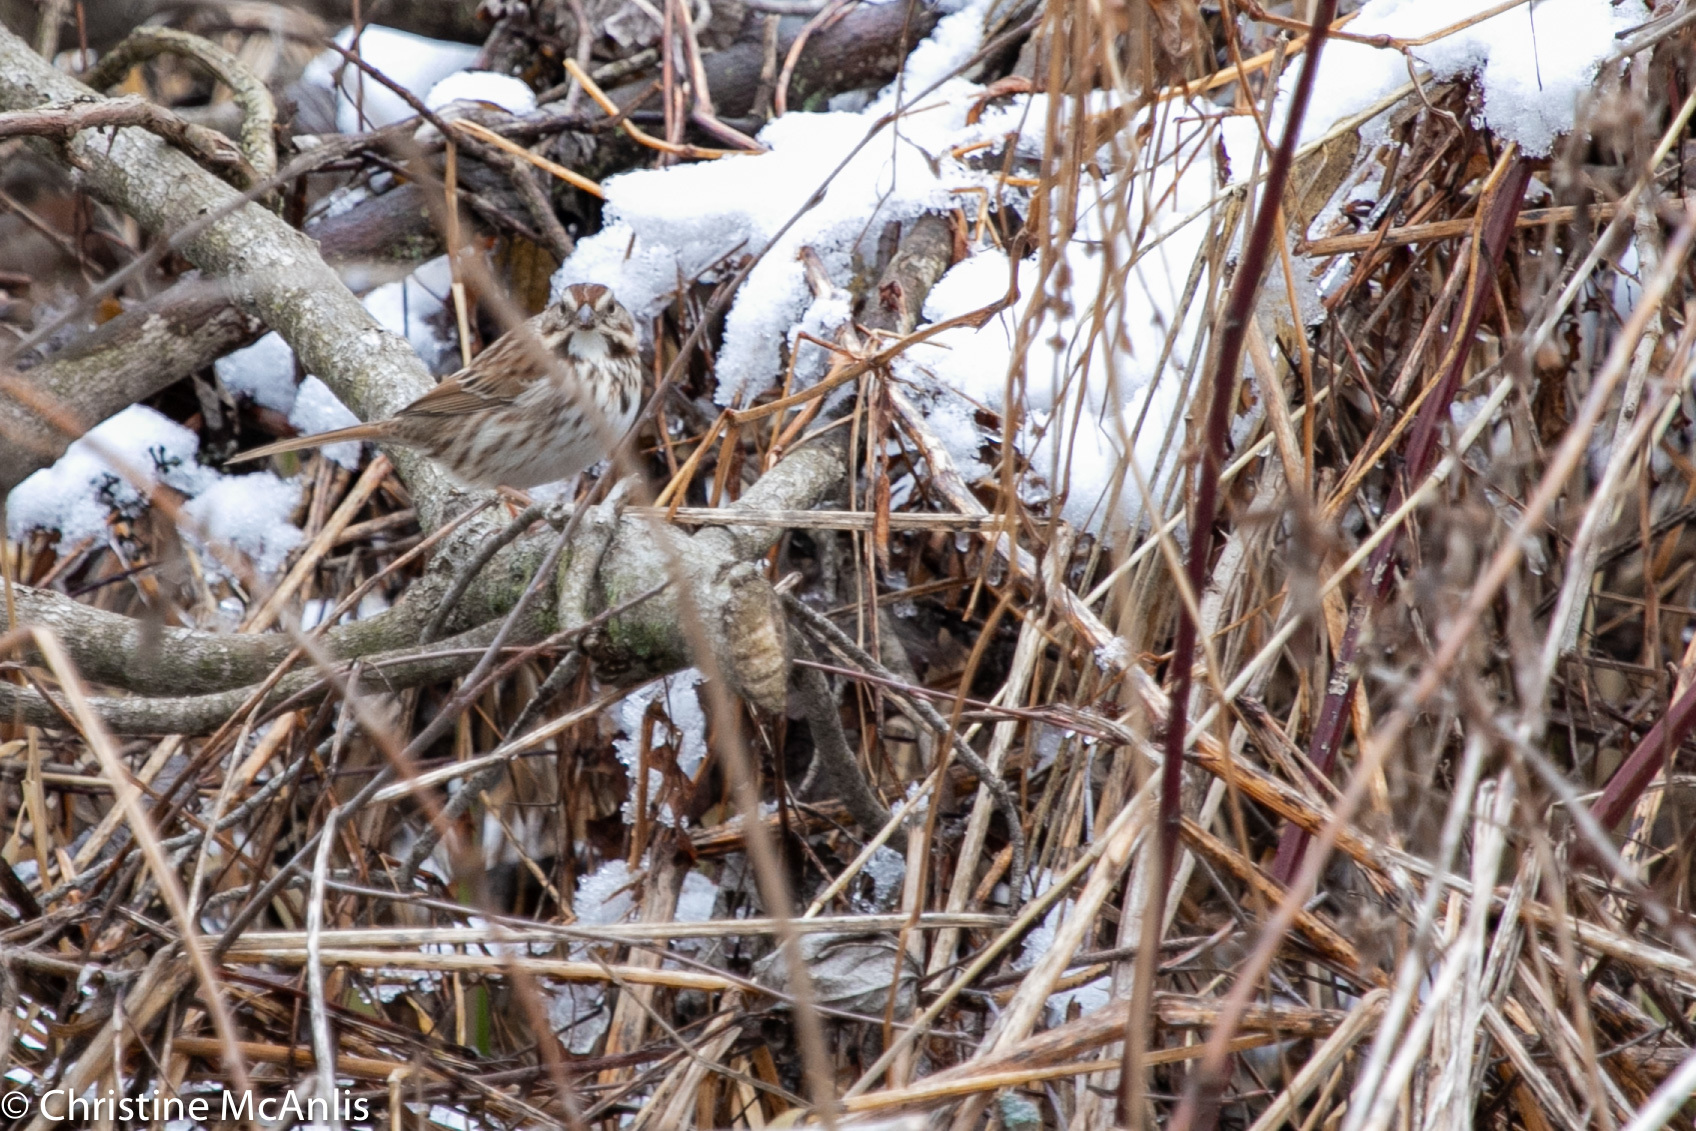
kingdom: Animalia
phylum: Chordata
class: Aves
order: Passeriformes
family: Passerellidae
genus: Melospiza
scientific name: Melospiza melodia
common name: Song sparrow
